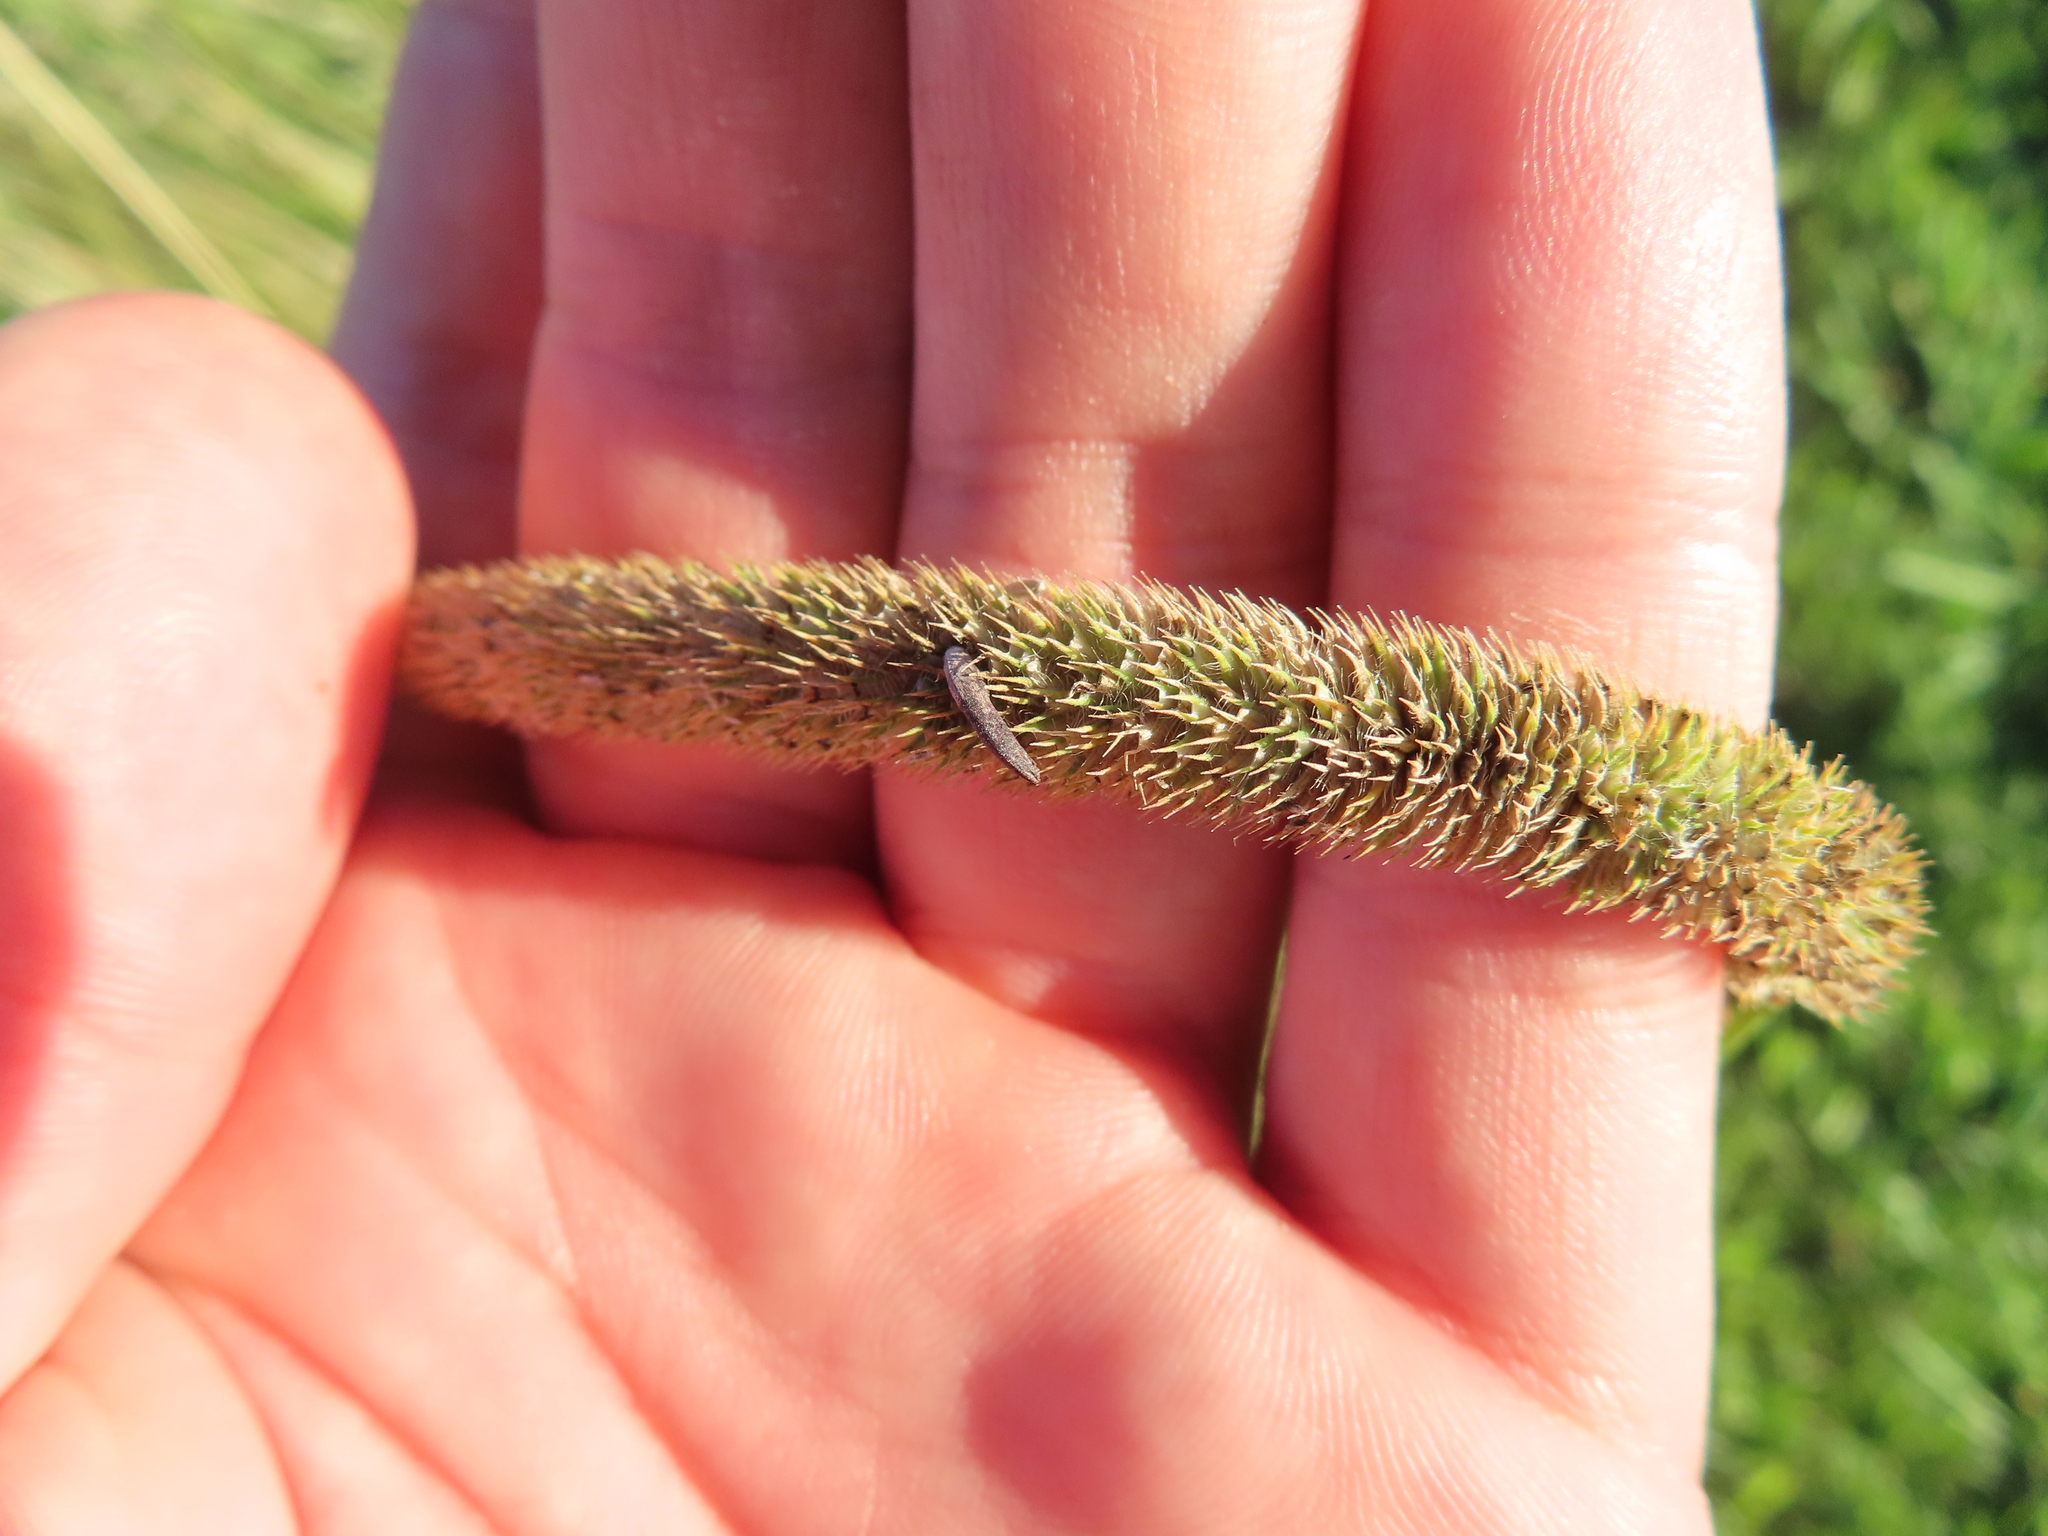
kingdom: Plantae
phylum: Tracheophyta
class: Liliopsida
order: Poales
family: Poaceae
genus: Phleum
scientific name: Phleum pratense
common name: Timothy grass
